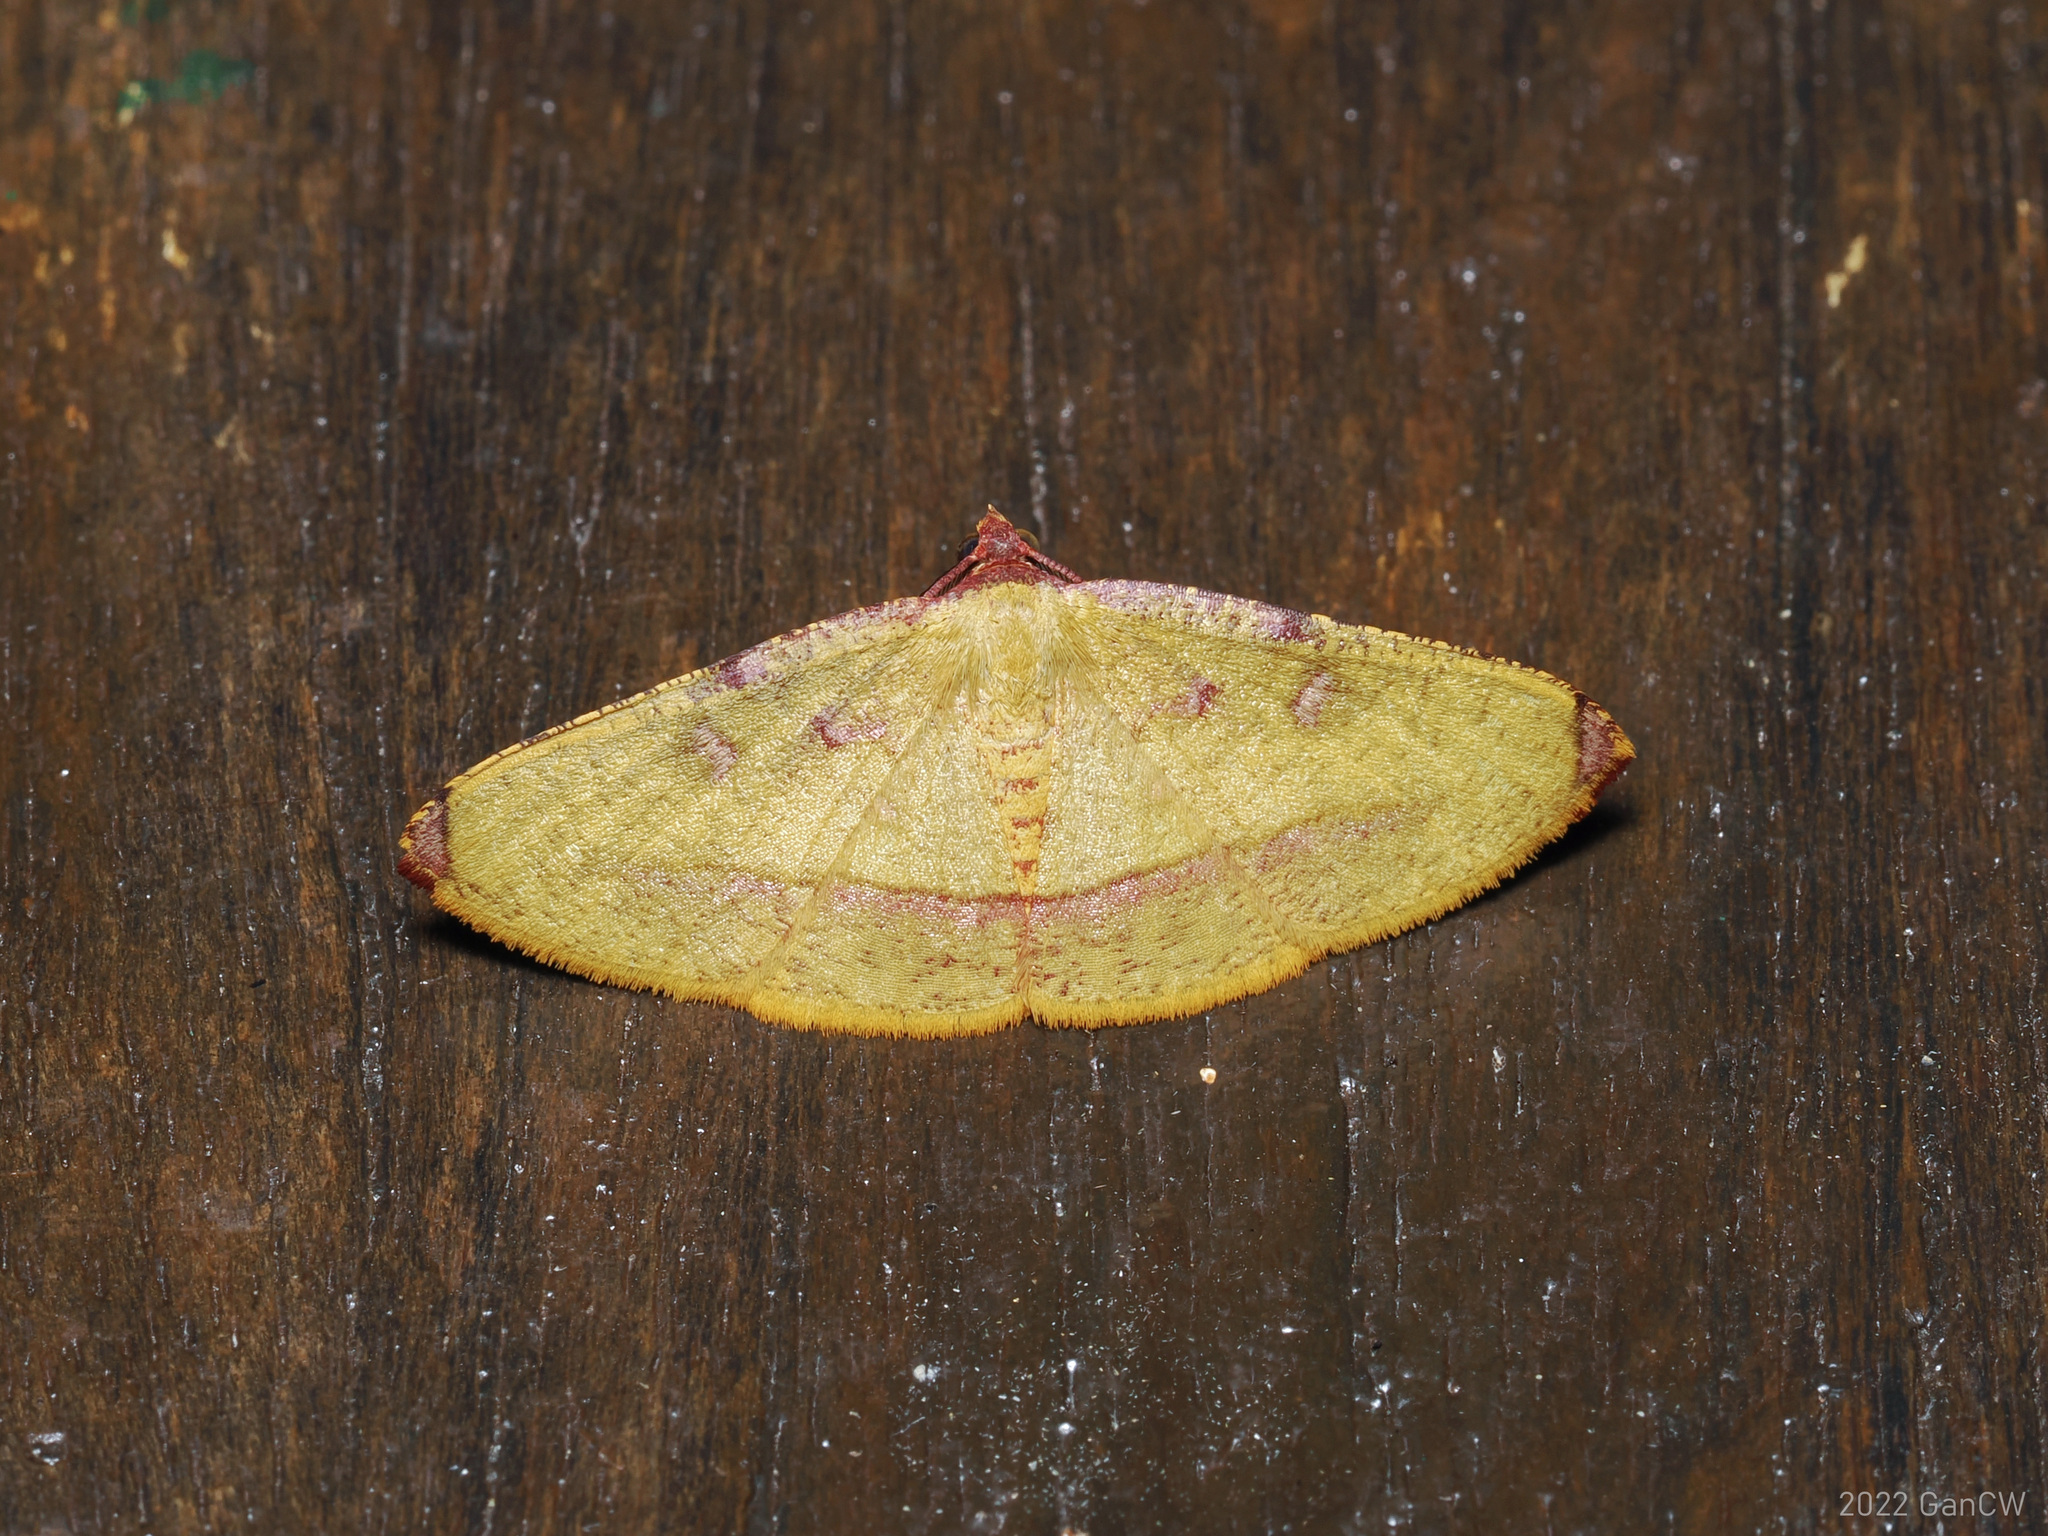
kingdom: Animalia
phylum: Arthropoda
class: Insecta
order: Lepidoptera
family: Geometridae
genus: Heterolocha
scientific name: Heterolocha pyreniata
